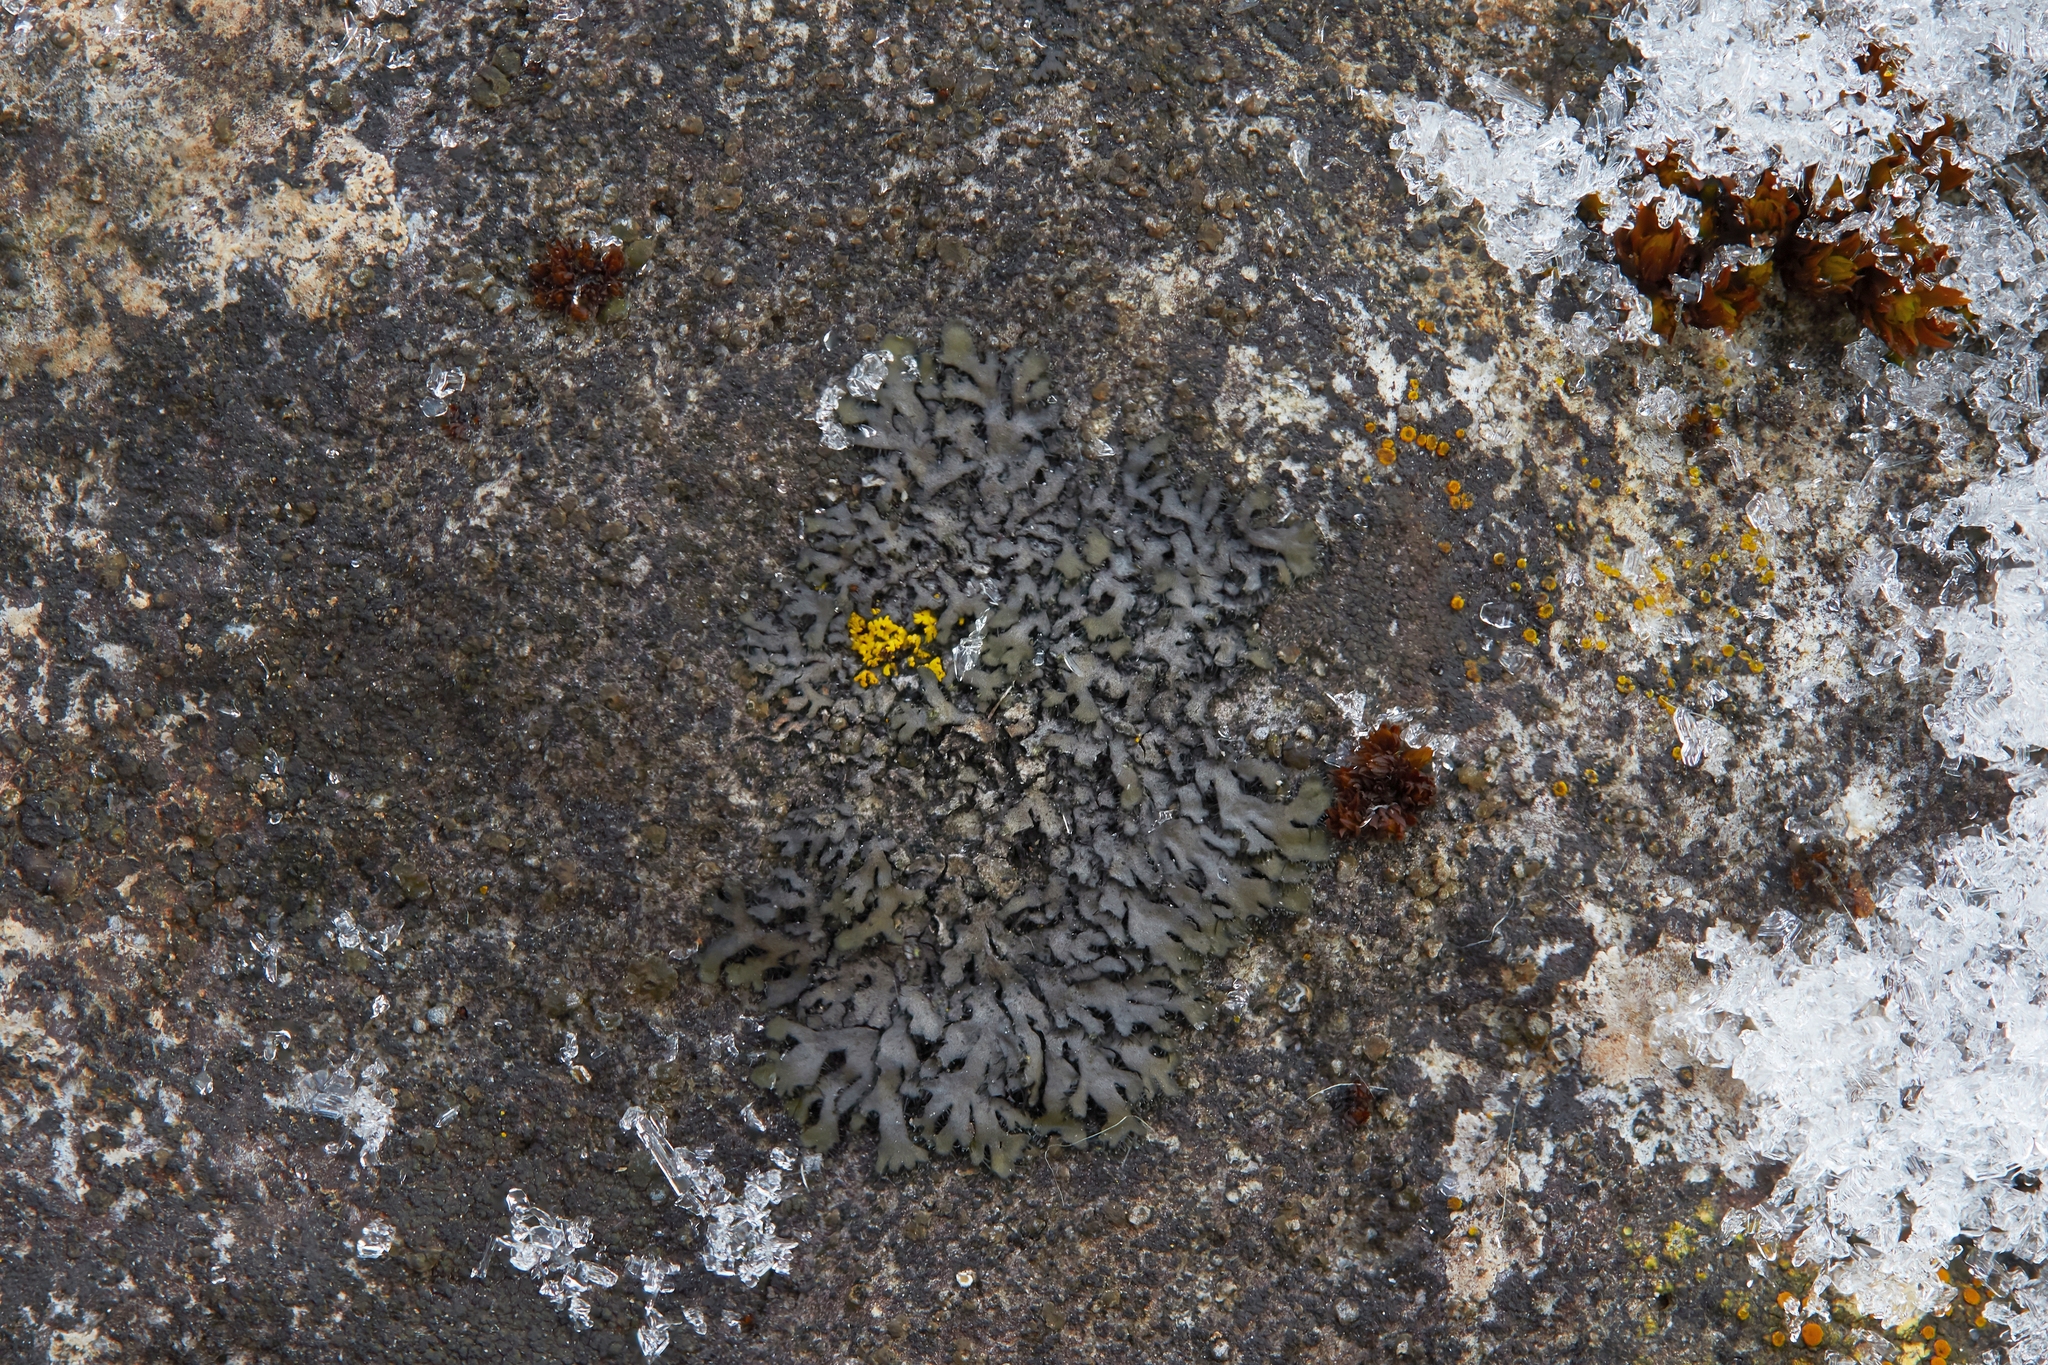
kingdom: Fungi
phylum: Ascomycota
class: Lecanoromycetes
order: Caliciales
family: Physciaceae
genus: Phaeophyscia
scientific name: Phaeophyscia ciliata
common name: Smooth shadow lichen
